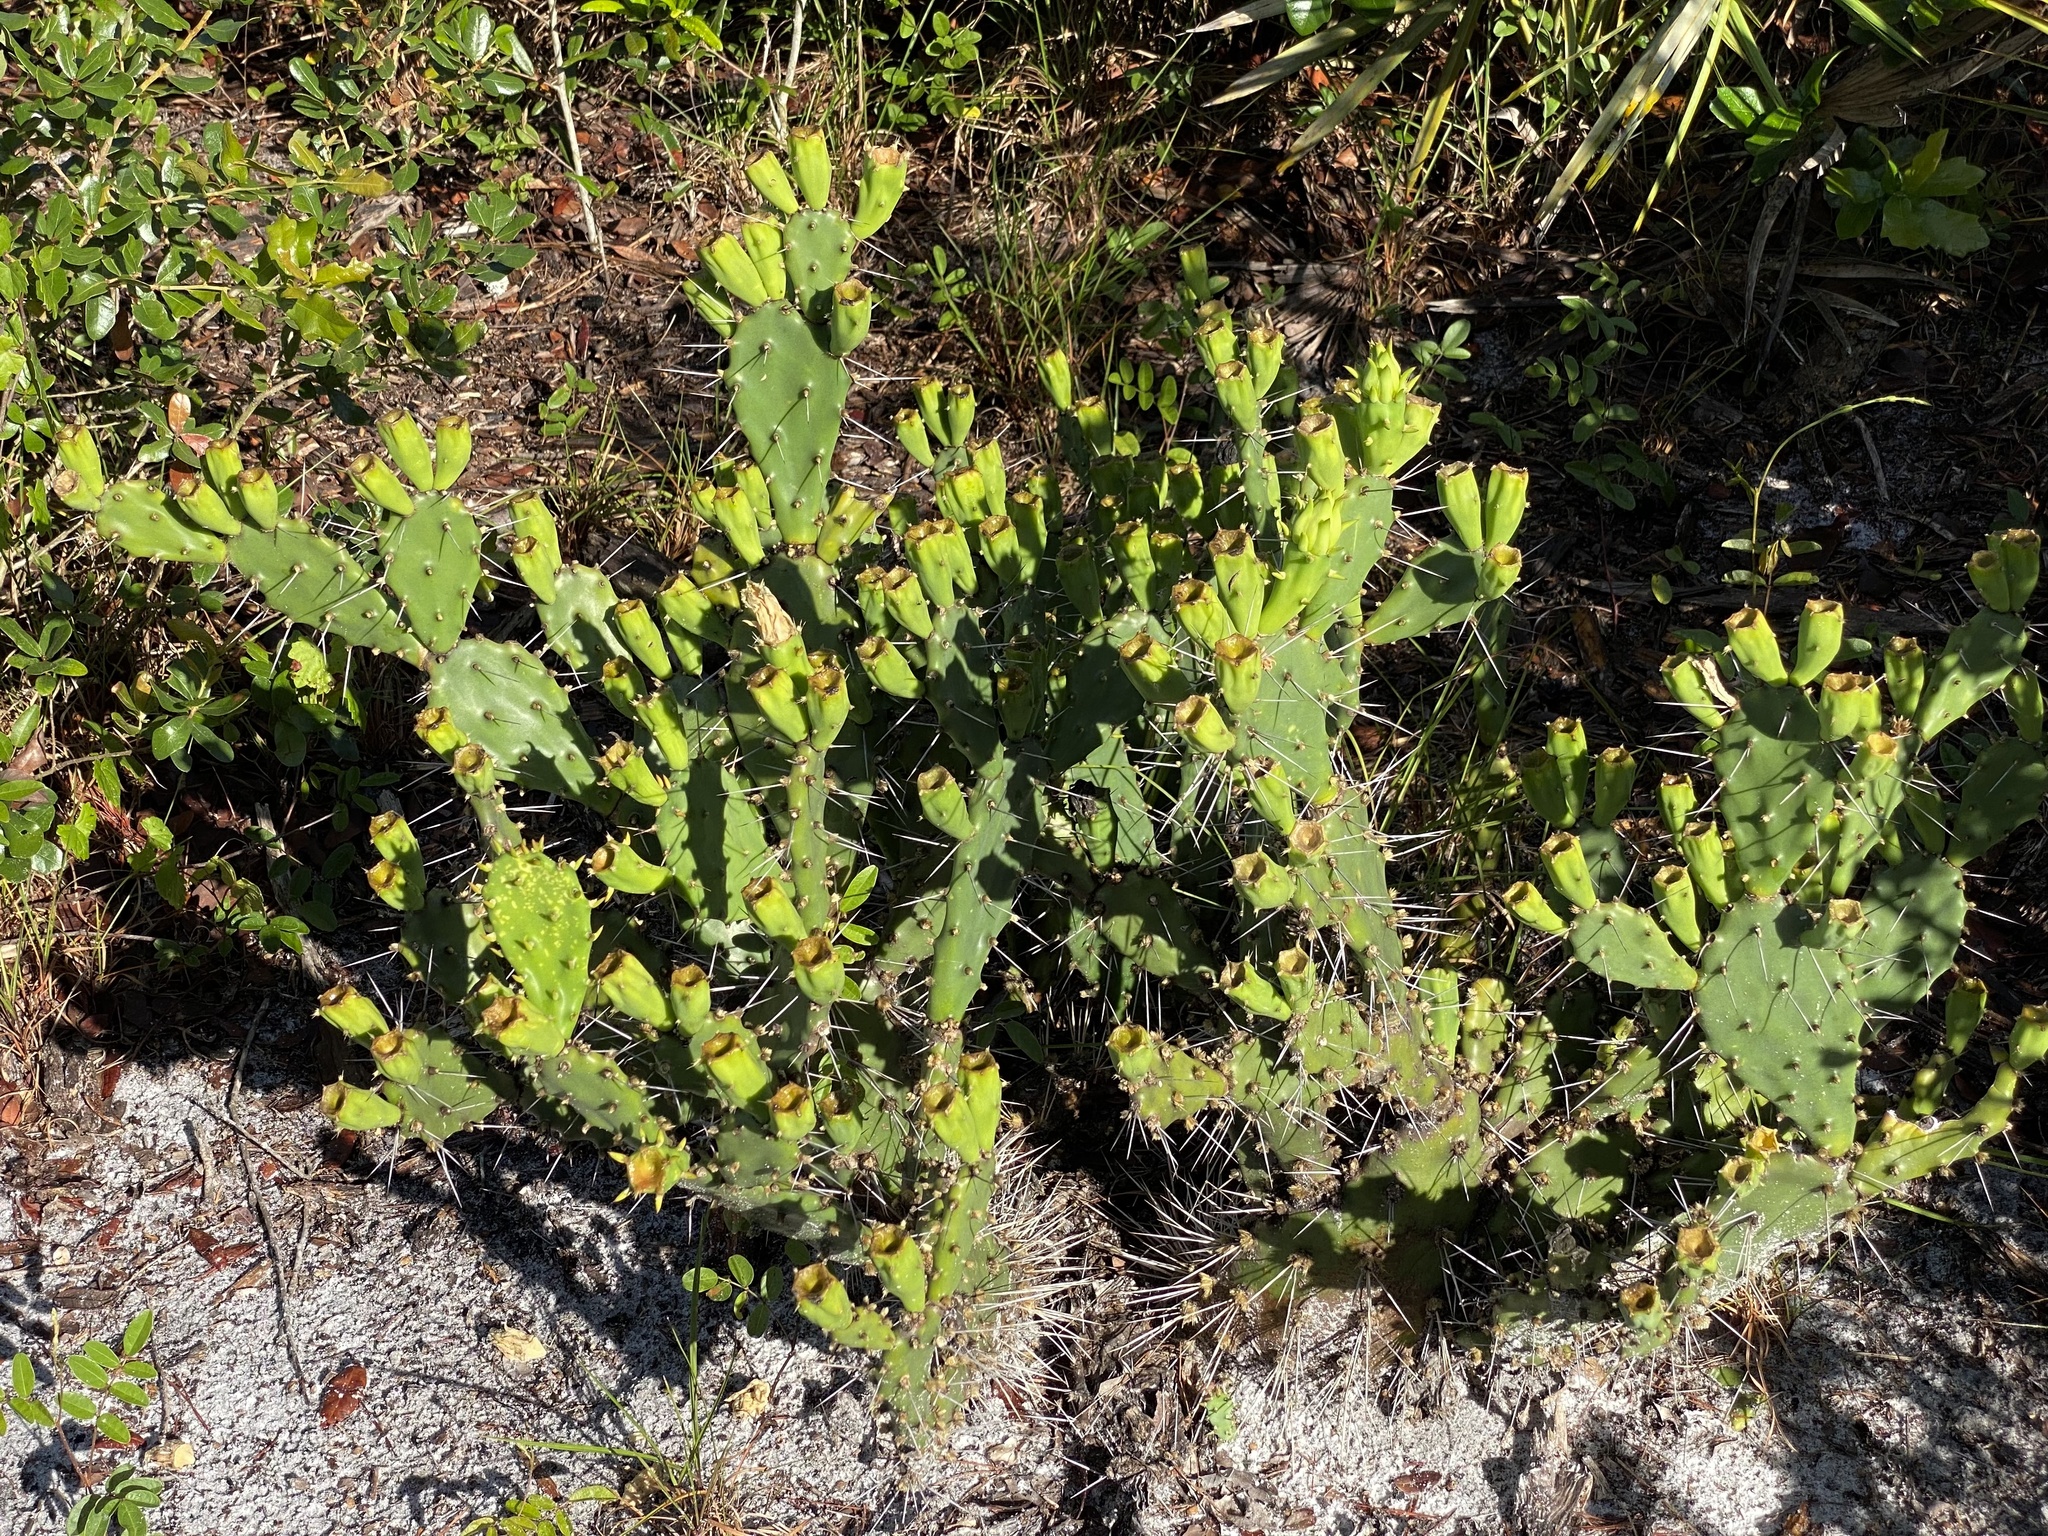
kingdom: Plantae
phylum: Tracheophyta
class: Magnoliopsida
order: Caryophyllales
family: Cactaceae
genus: Opuntia
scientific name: Opuntia austrina
